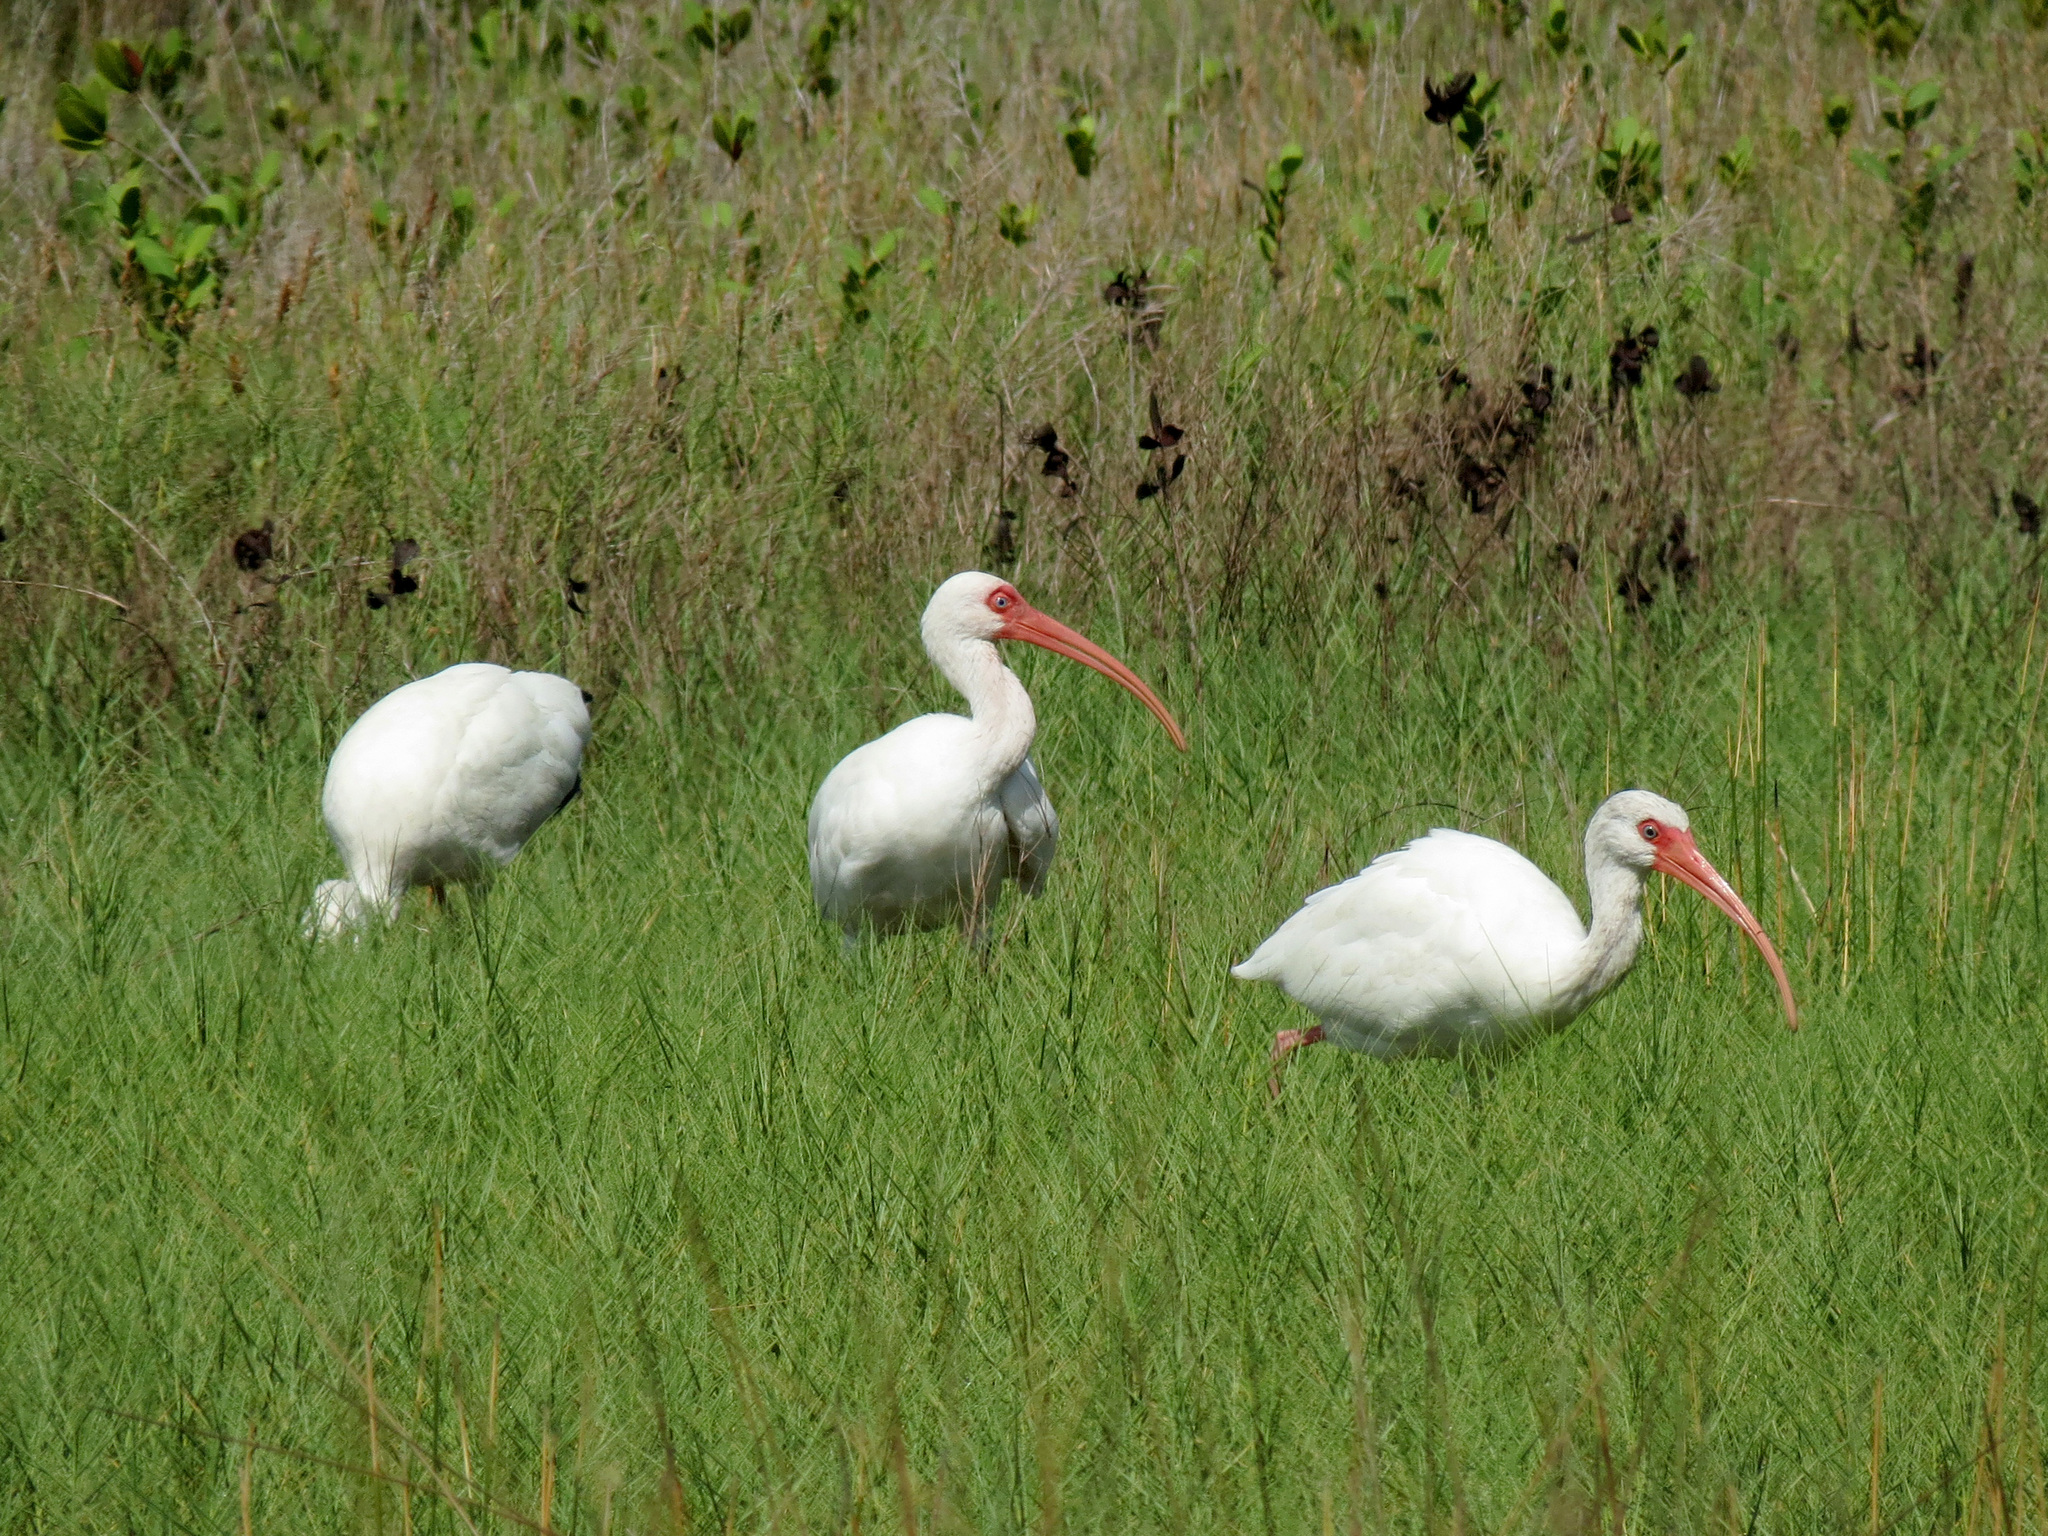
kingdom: Animalia
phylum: Chordata
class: Aves
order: Pelecaniformes
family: Threskiornithidae
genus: Eudocimus
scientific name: Eudocimus albus
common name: White ibis
